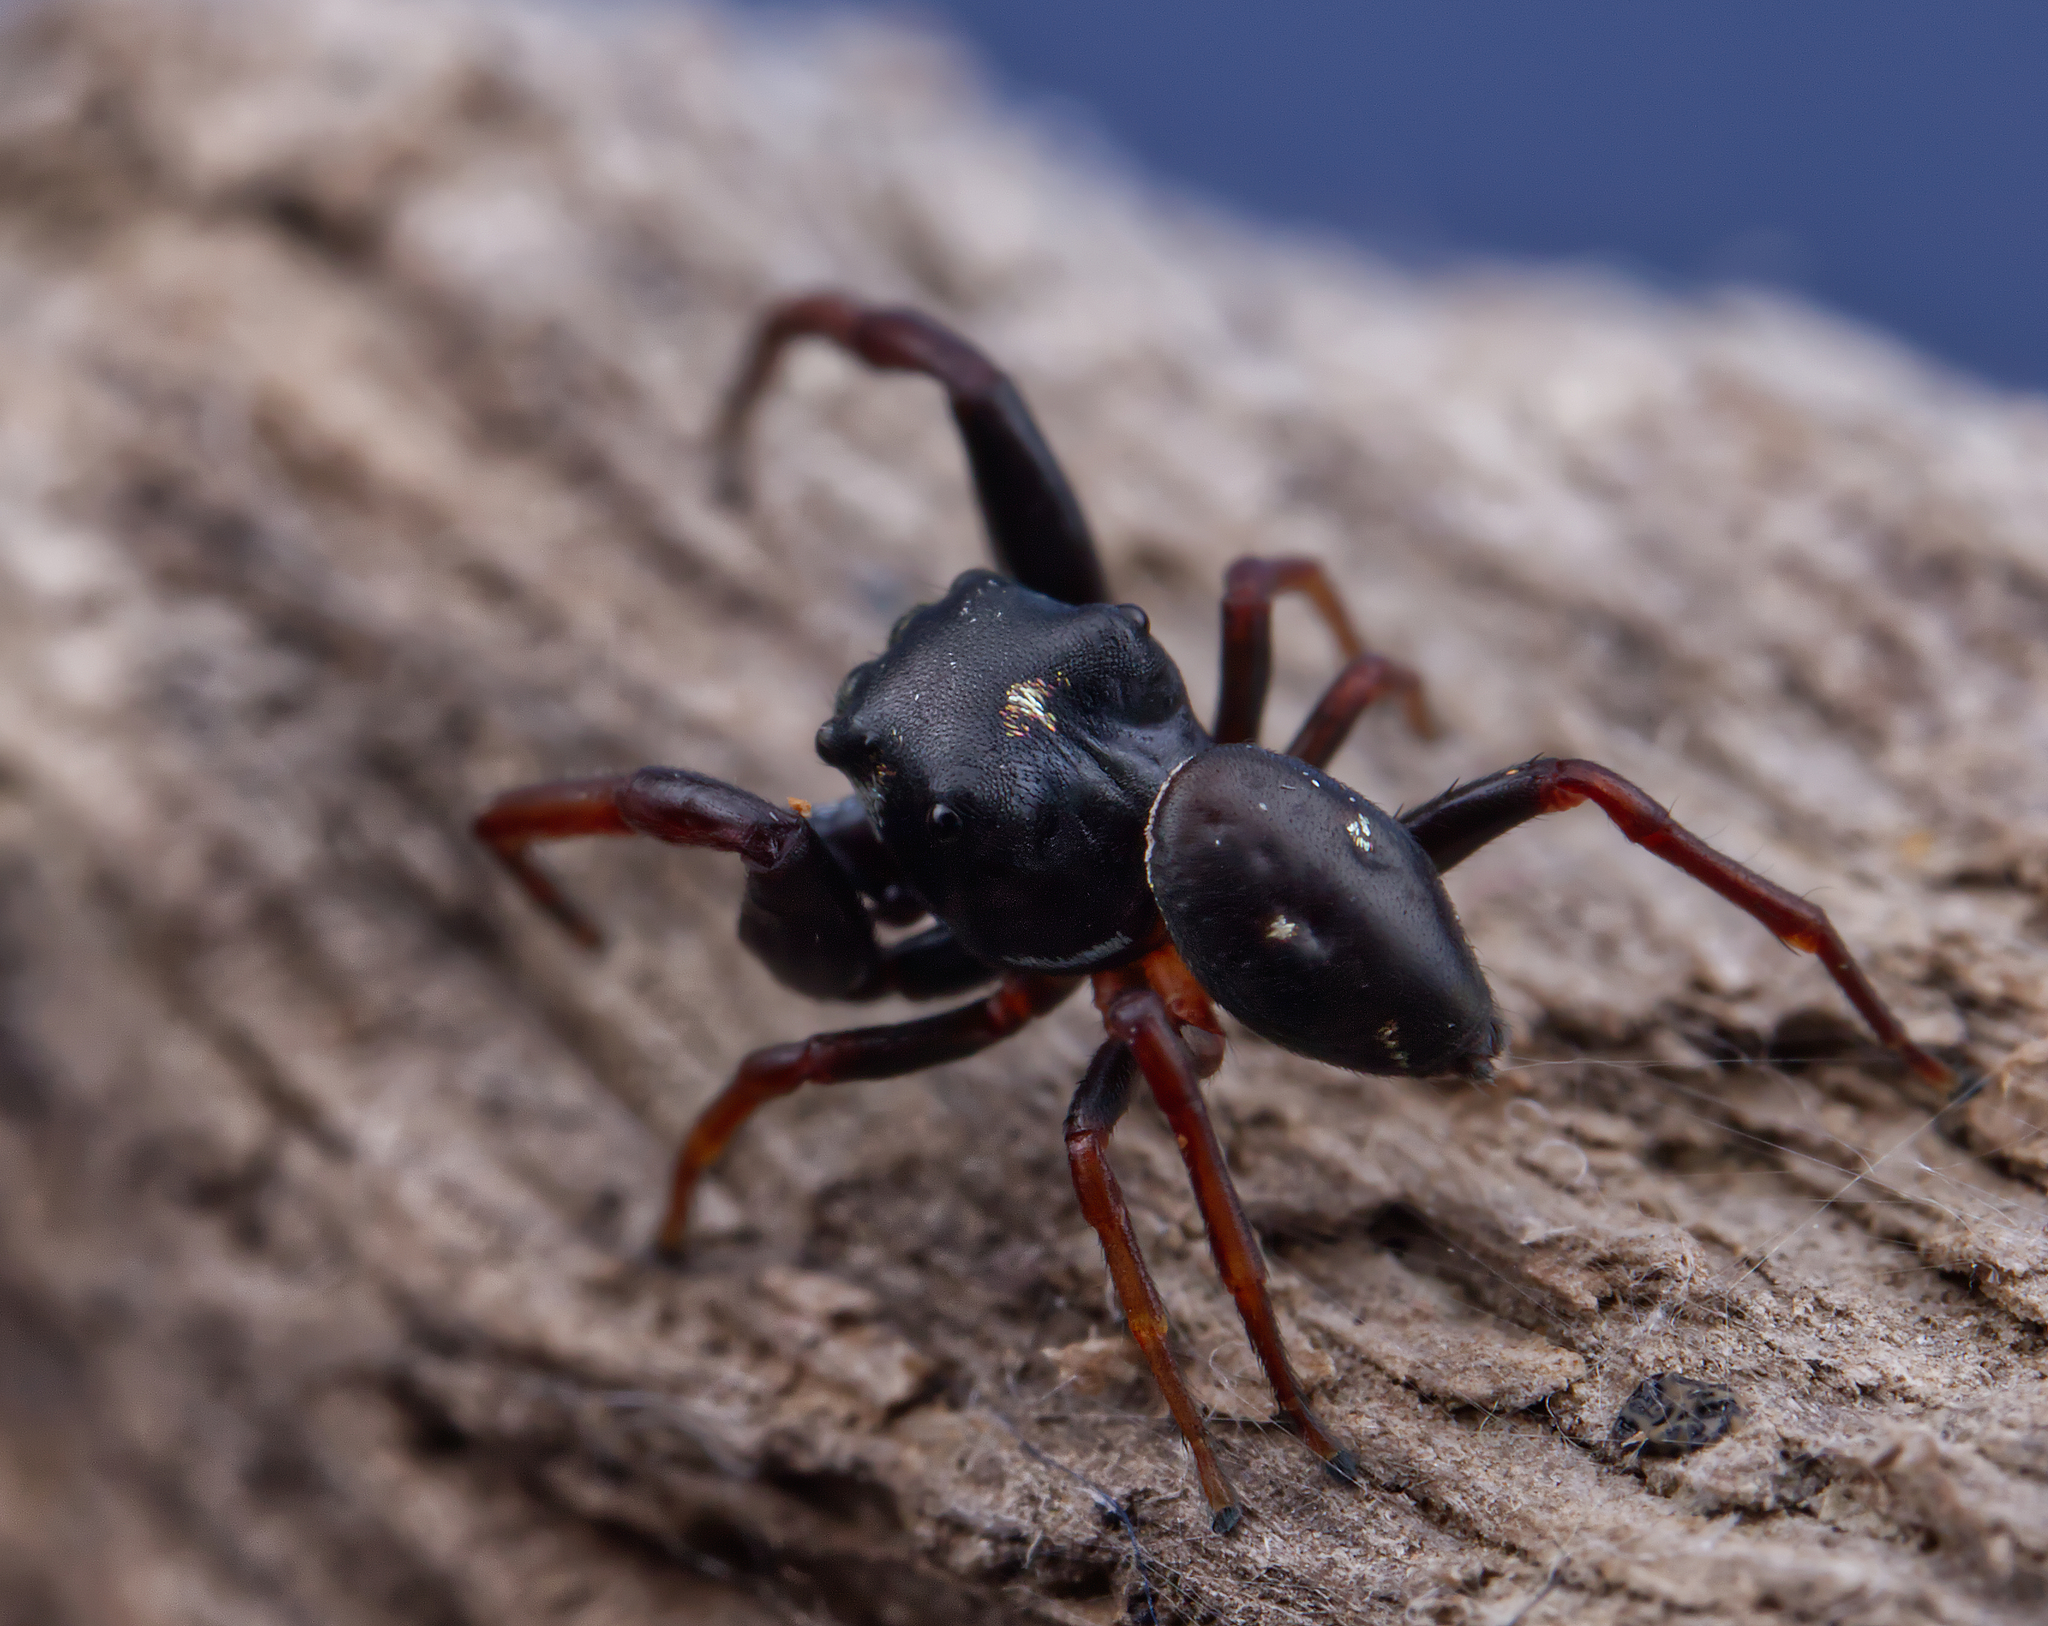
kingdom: Animalia
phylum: Arthropoda
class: Arachnida
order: Araneae
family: Salticidae
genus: Zygoballus
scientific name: Zygoballus sexpunctatus
